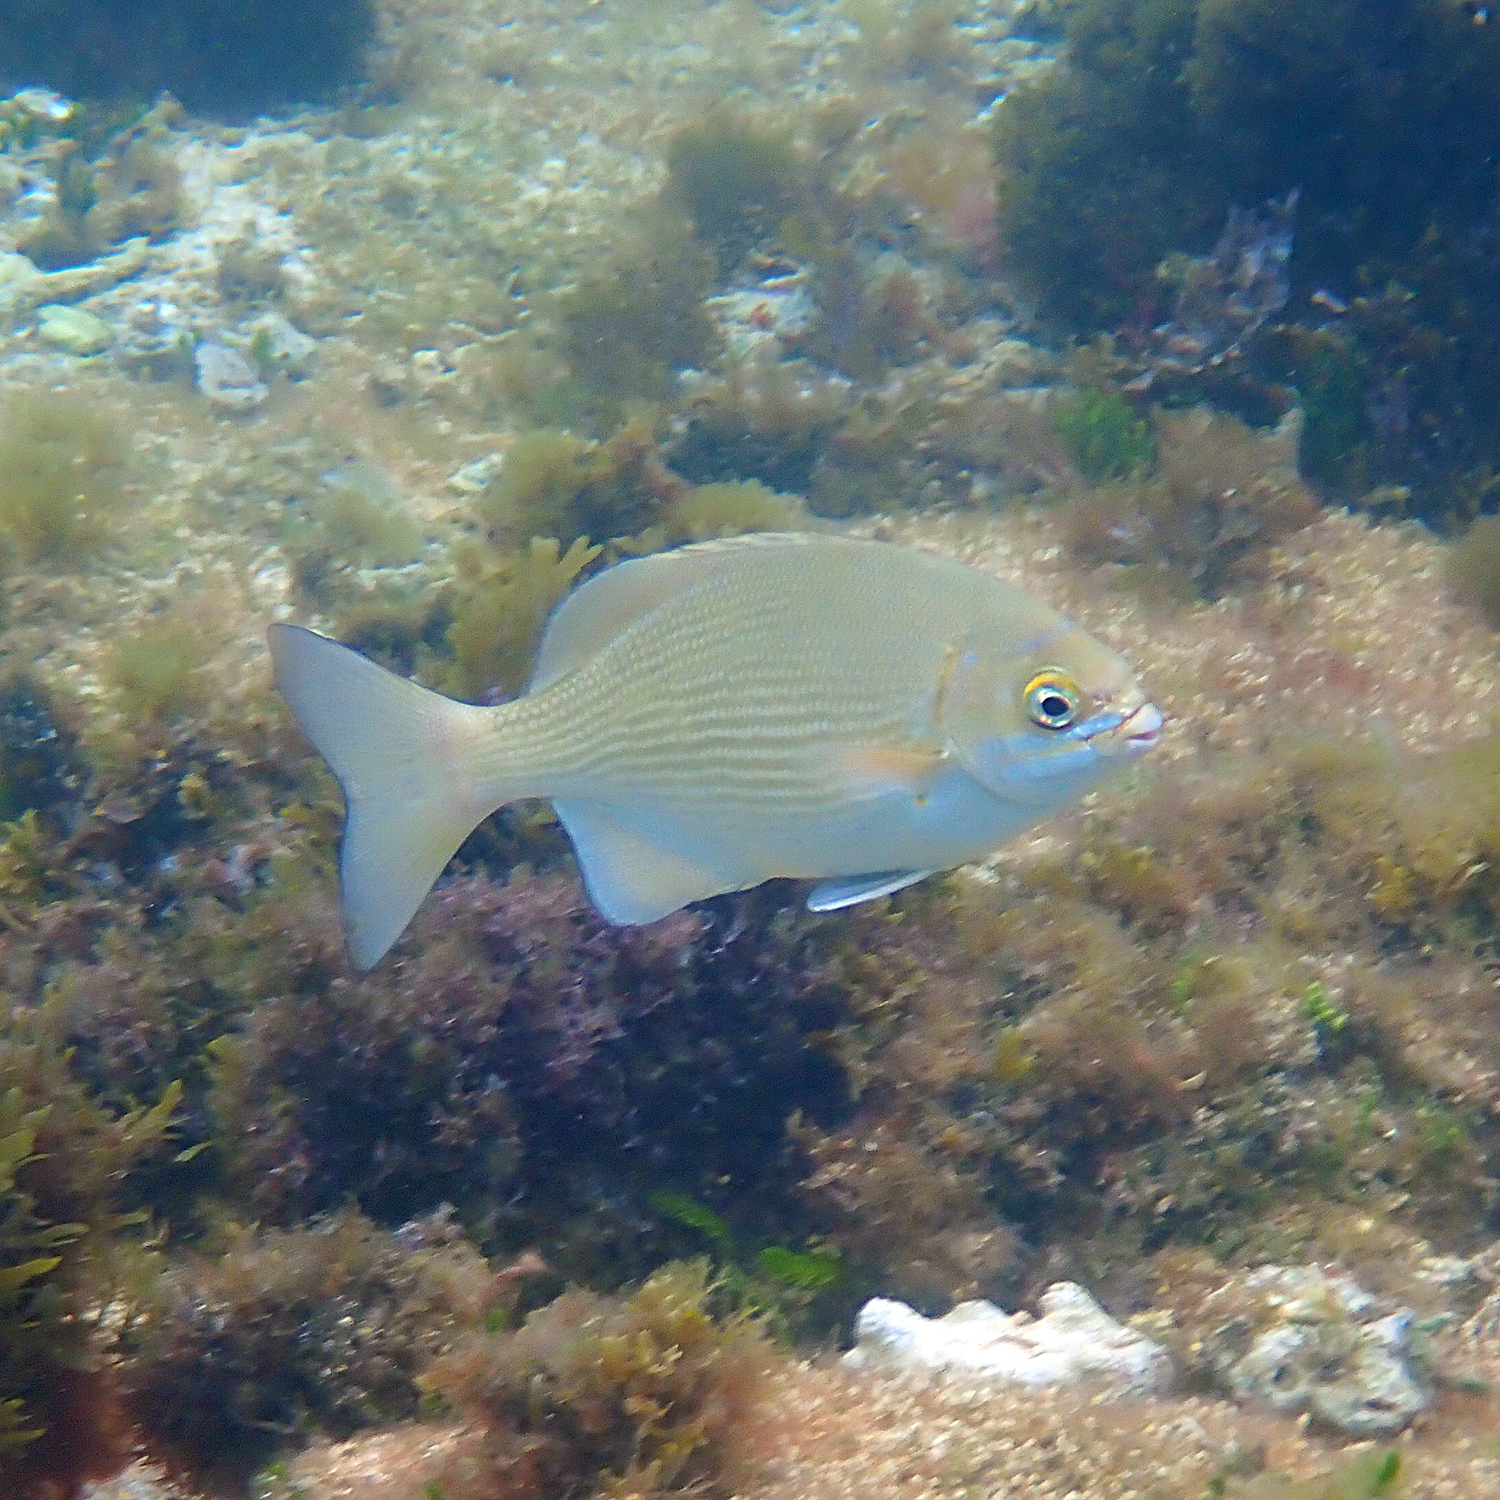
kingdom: Animalia
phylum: Chordata
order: Perciformes
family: Kyphosidae
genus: Kyphosus
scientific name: Kyphosus cinerascens
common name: Topsail drummer
